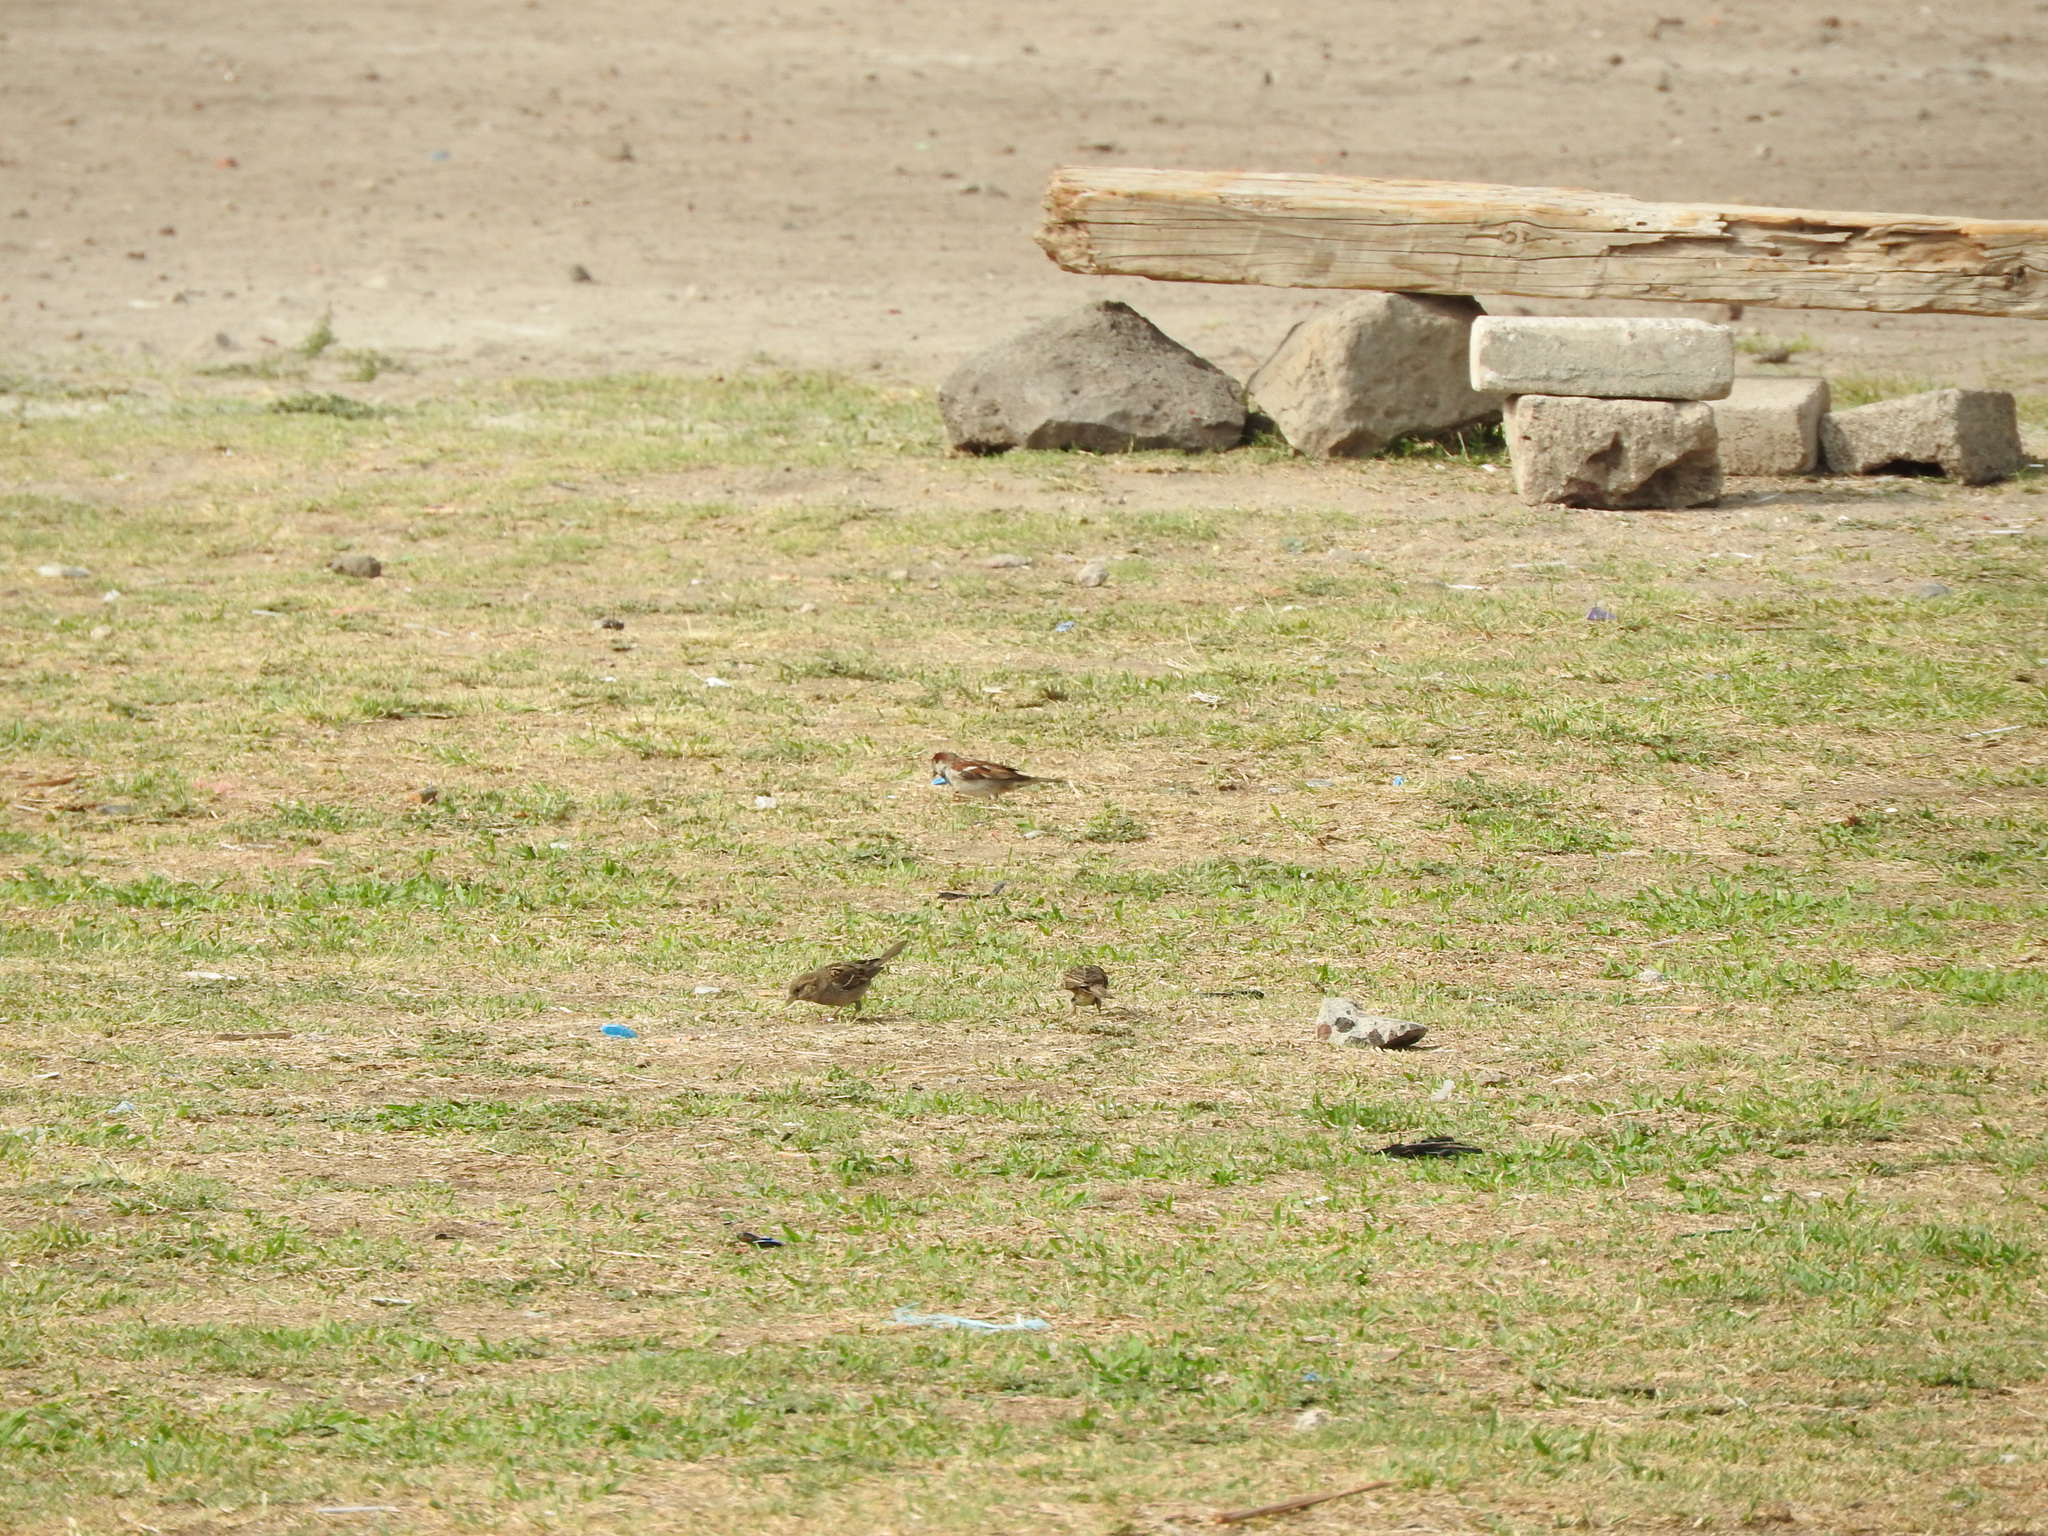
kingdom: Animalia
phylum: Chordata
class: Aves
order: Passeriformes
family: Passeridae
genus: Passer
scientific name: Passer domesticus
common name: House sparrow
